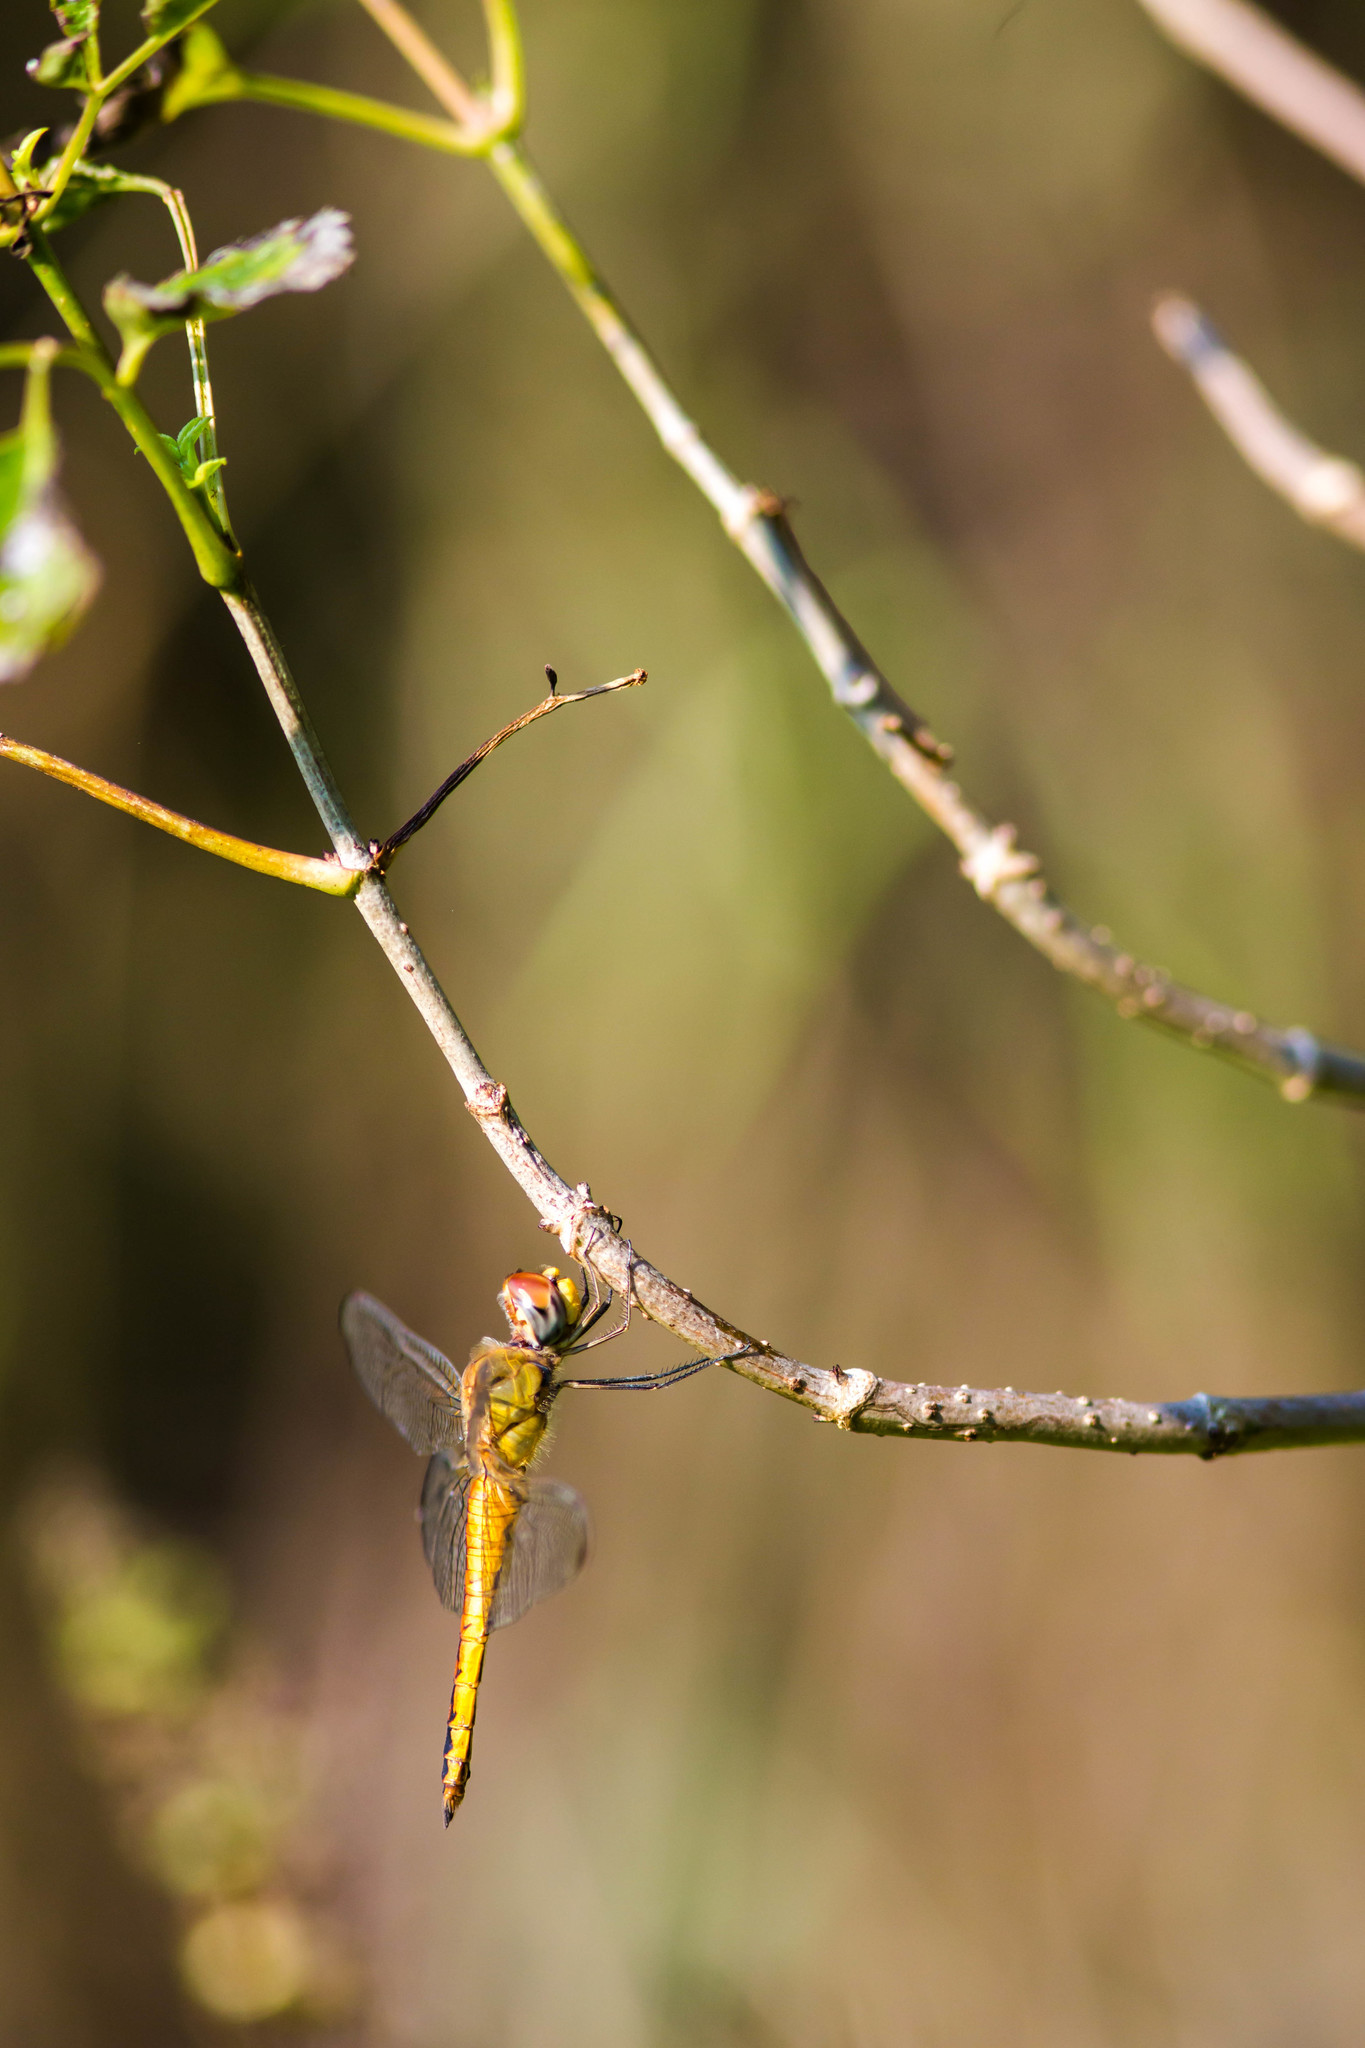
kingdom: Animalia
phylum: Arthropoda
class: Insecta
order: Odonata
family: Libellulidae
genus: Pantala
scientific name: Pantala flavescens
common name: Wandering glider
